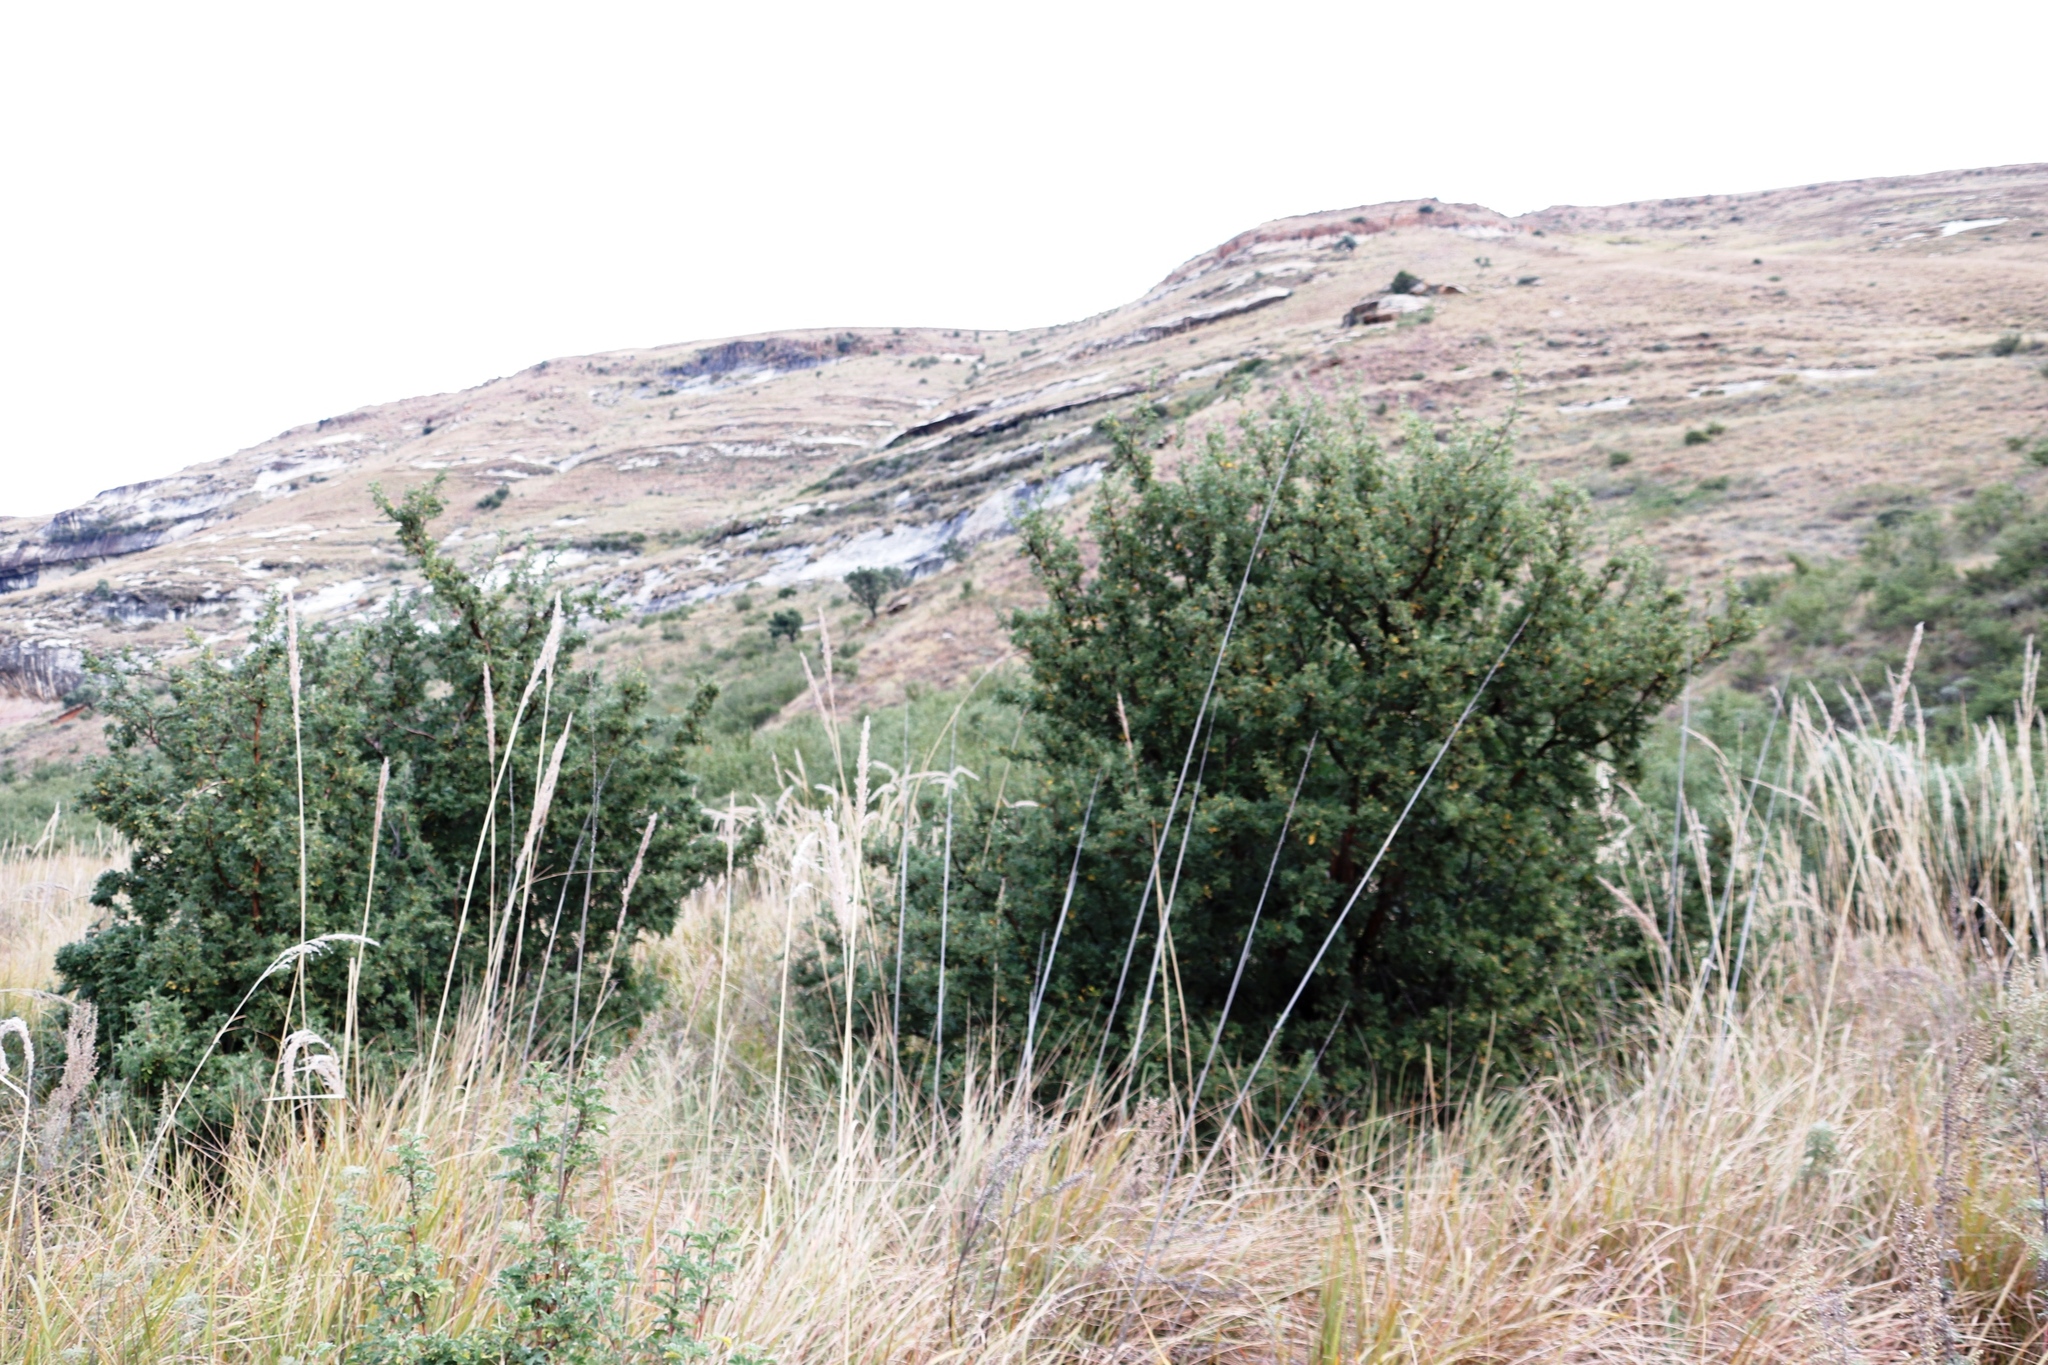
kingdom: Plantae
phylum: Tracheophyta
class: Magnoliopsida
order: Rosales
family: Rosaceae
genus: Leucosidea
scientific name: Leucosidea sericea
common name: Oldwood
